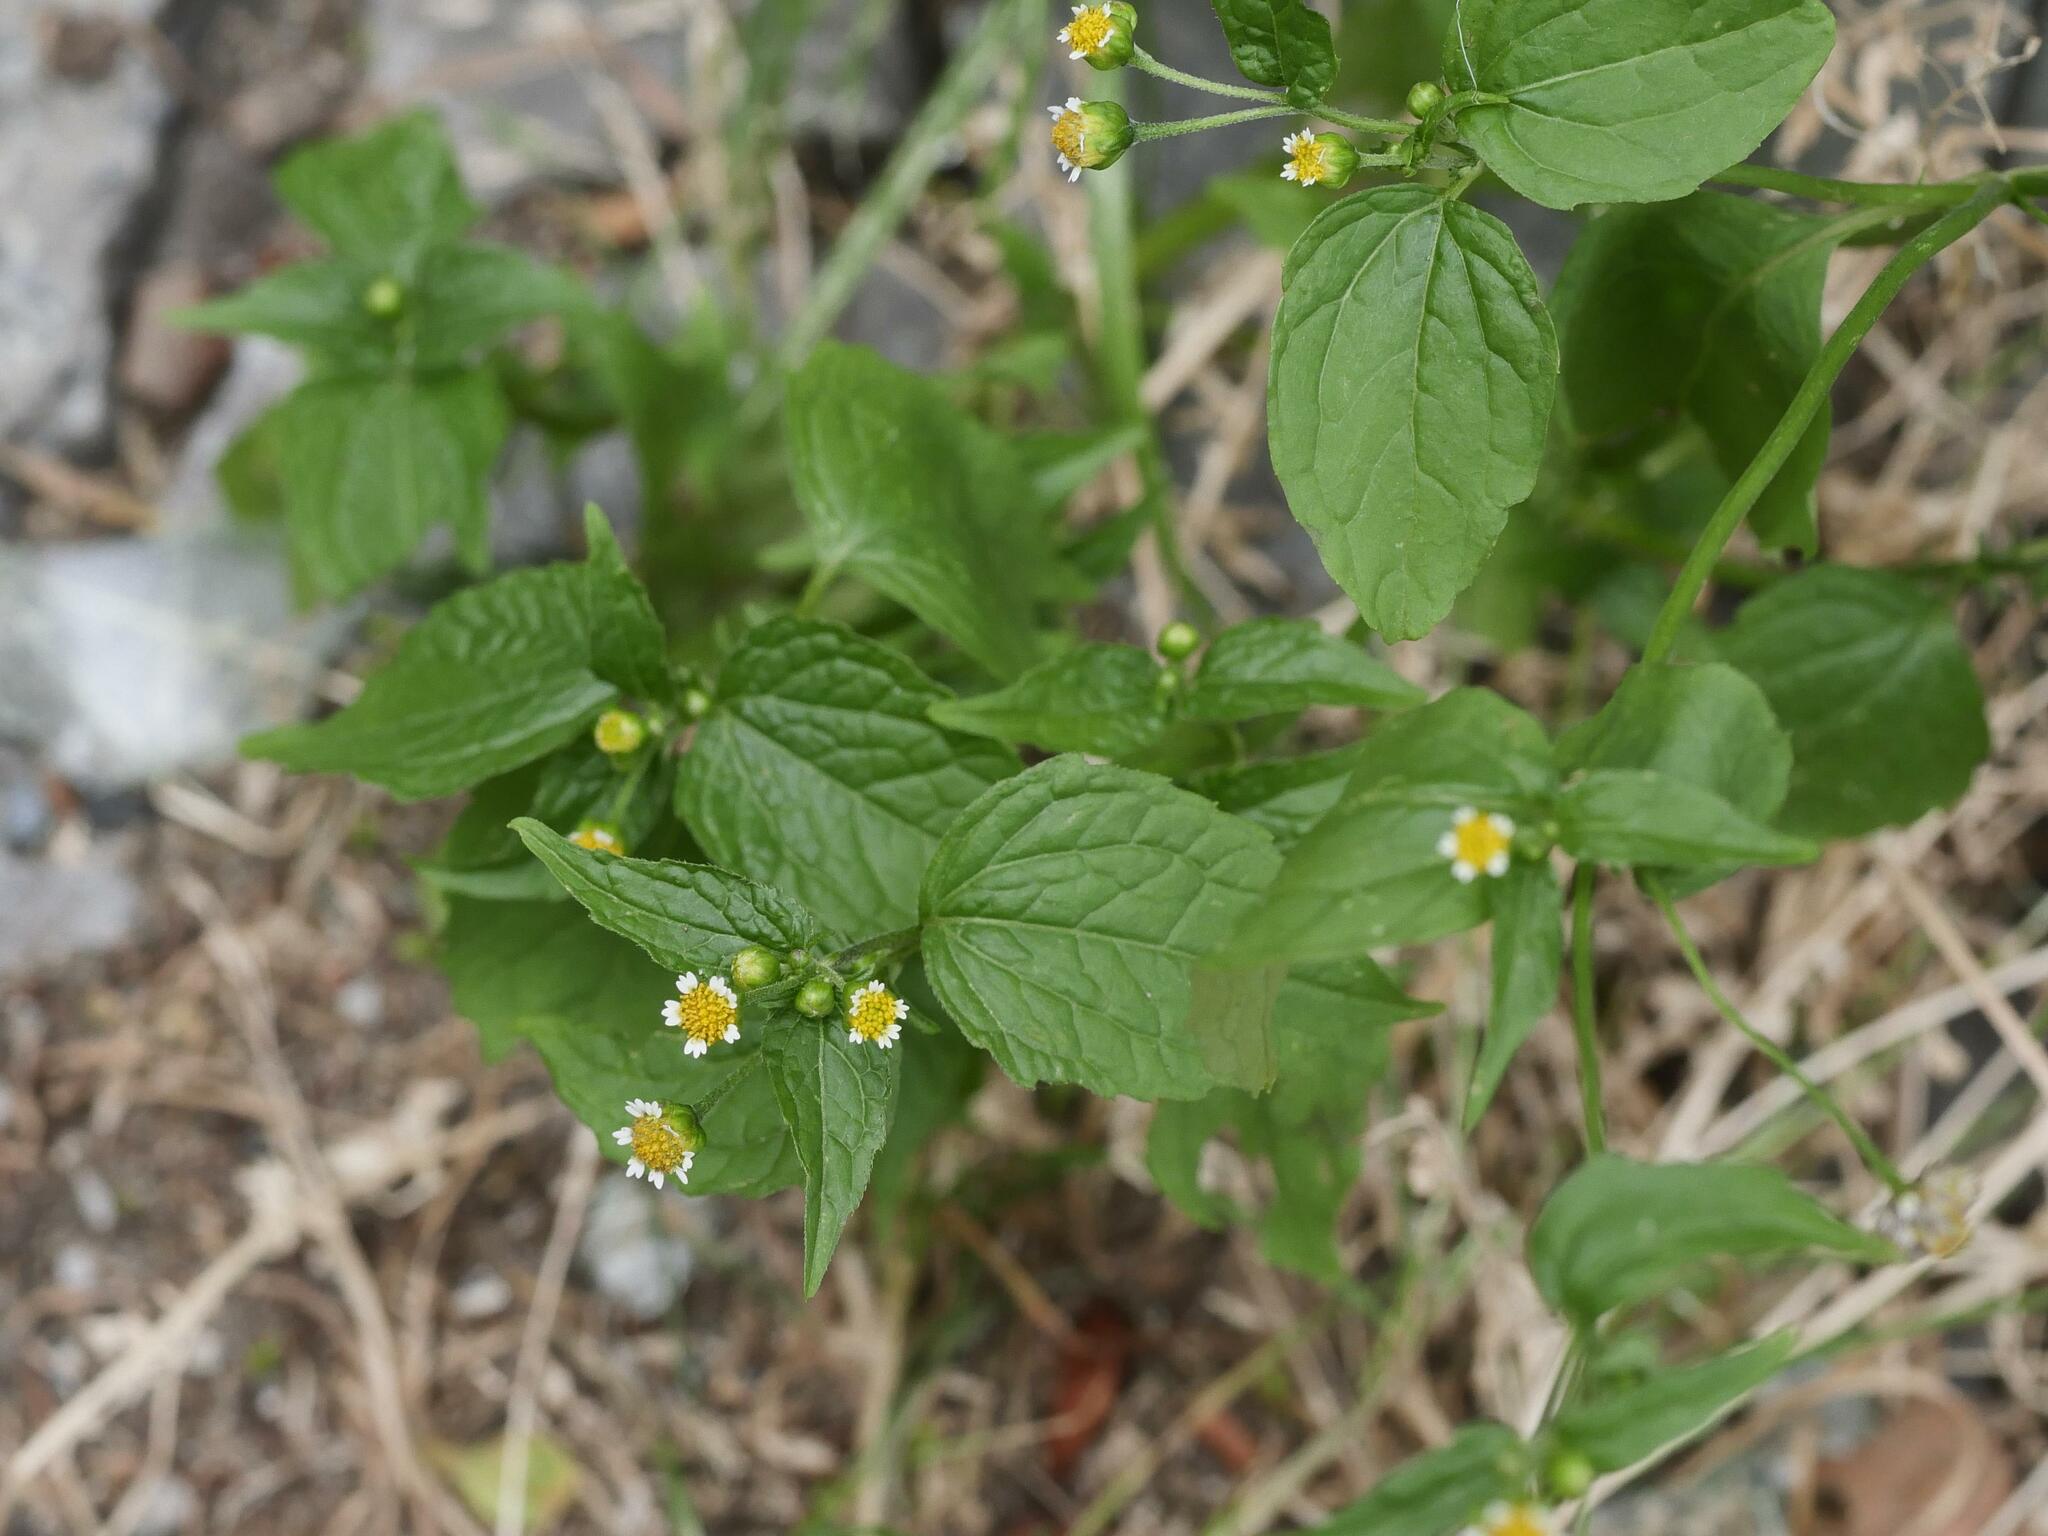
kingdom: Plantae
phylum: Tracheophyta
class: Magnoliopsida
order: Asterales
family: Asteraceae
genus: Galinsoga
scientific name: Galinsoga parviflora
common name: Gallant soldier
